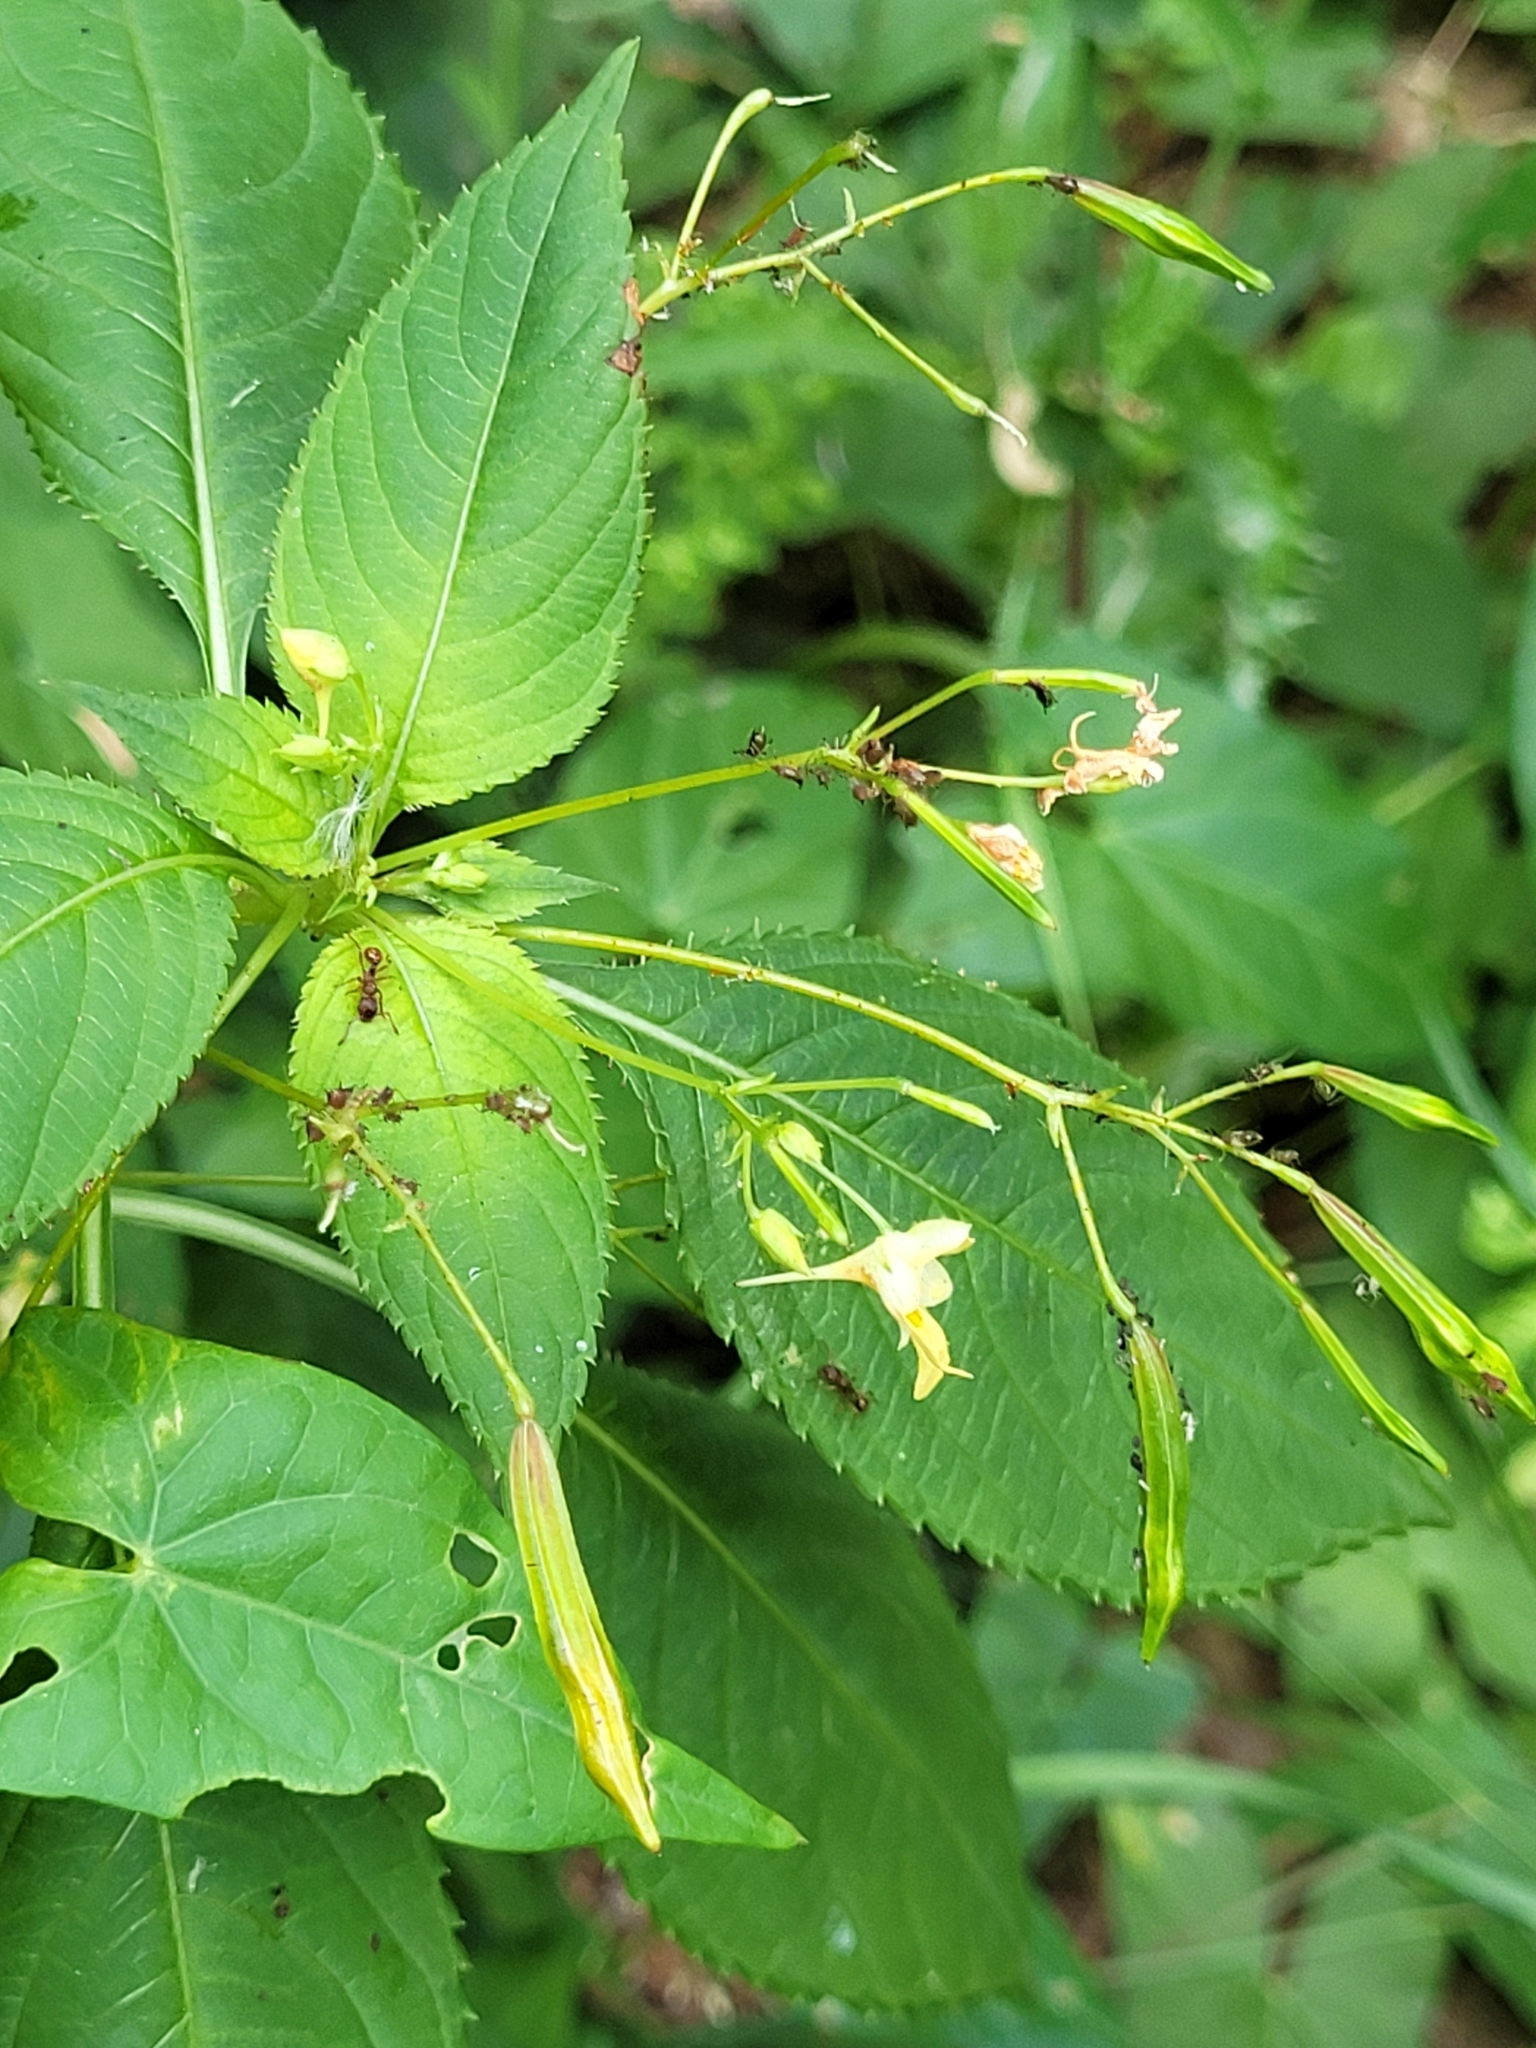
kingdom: Plantae
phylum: Tracheophyta
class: Magnoliopsida
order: Ericales
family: Balsaminaceae
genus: Impatiens
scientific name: Impatiens parviflora
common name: Small balsam
